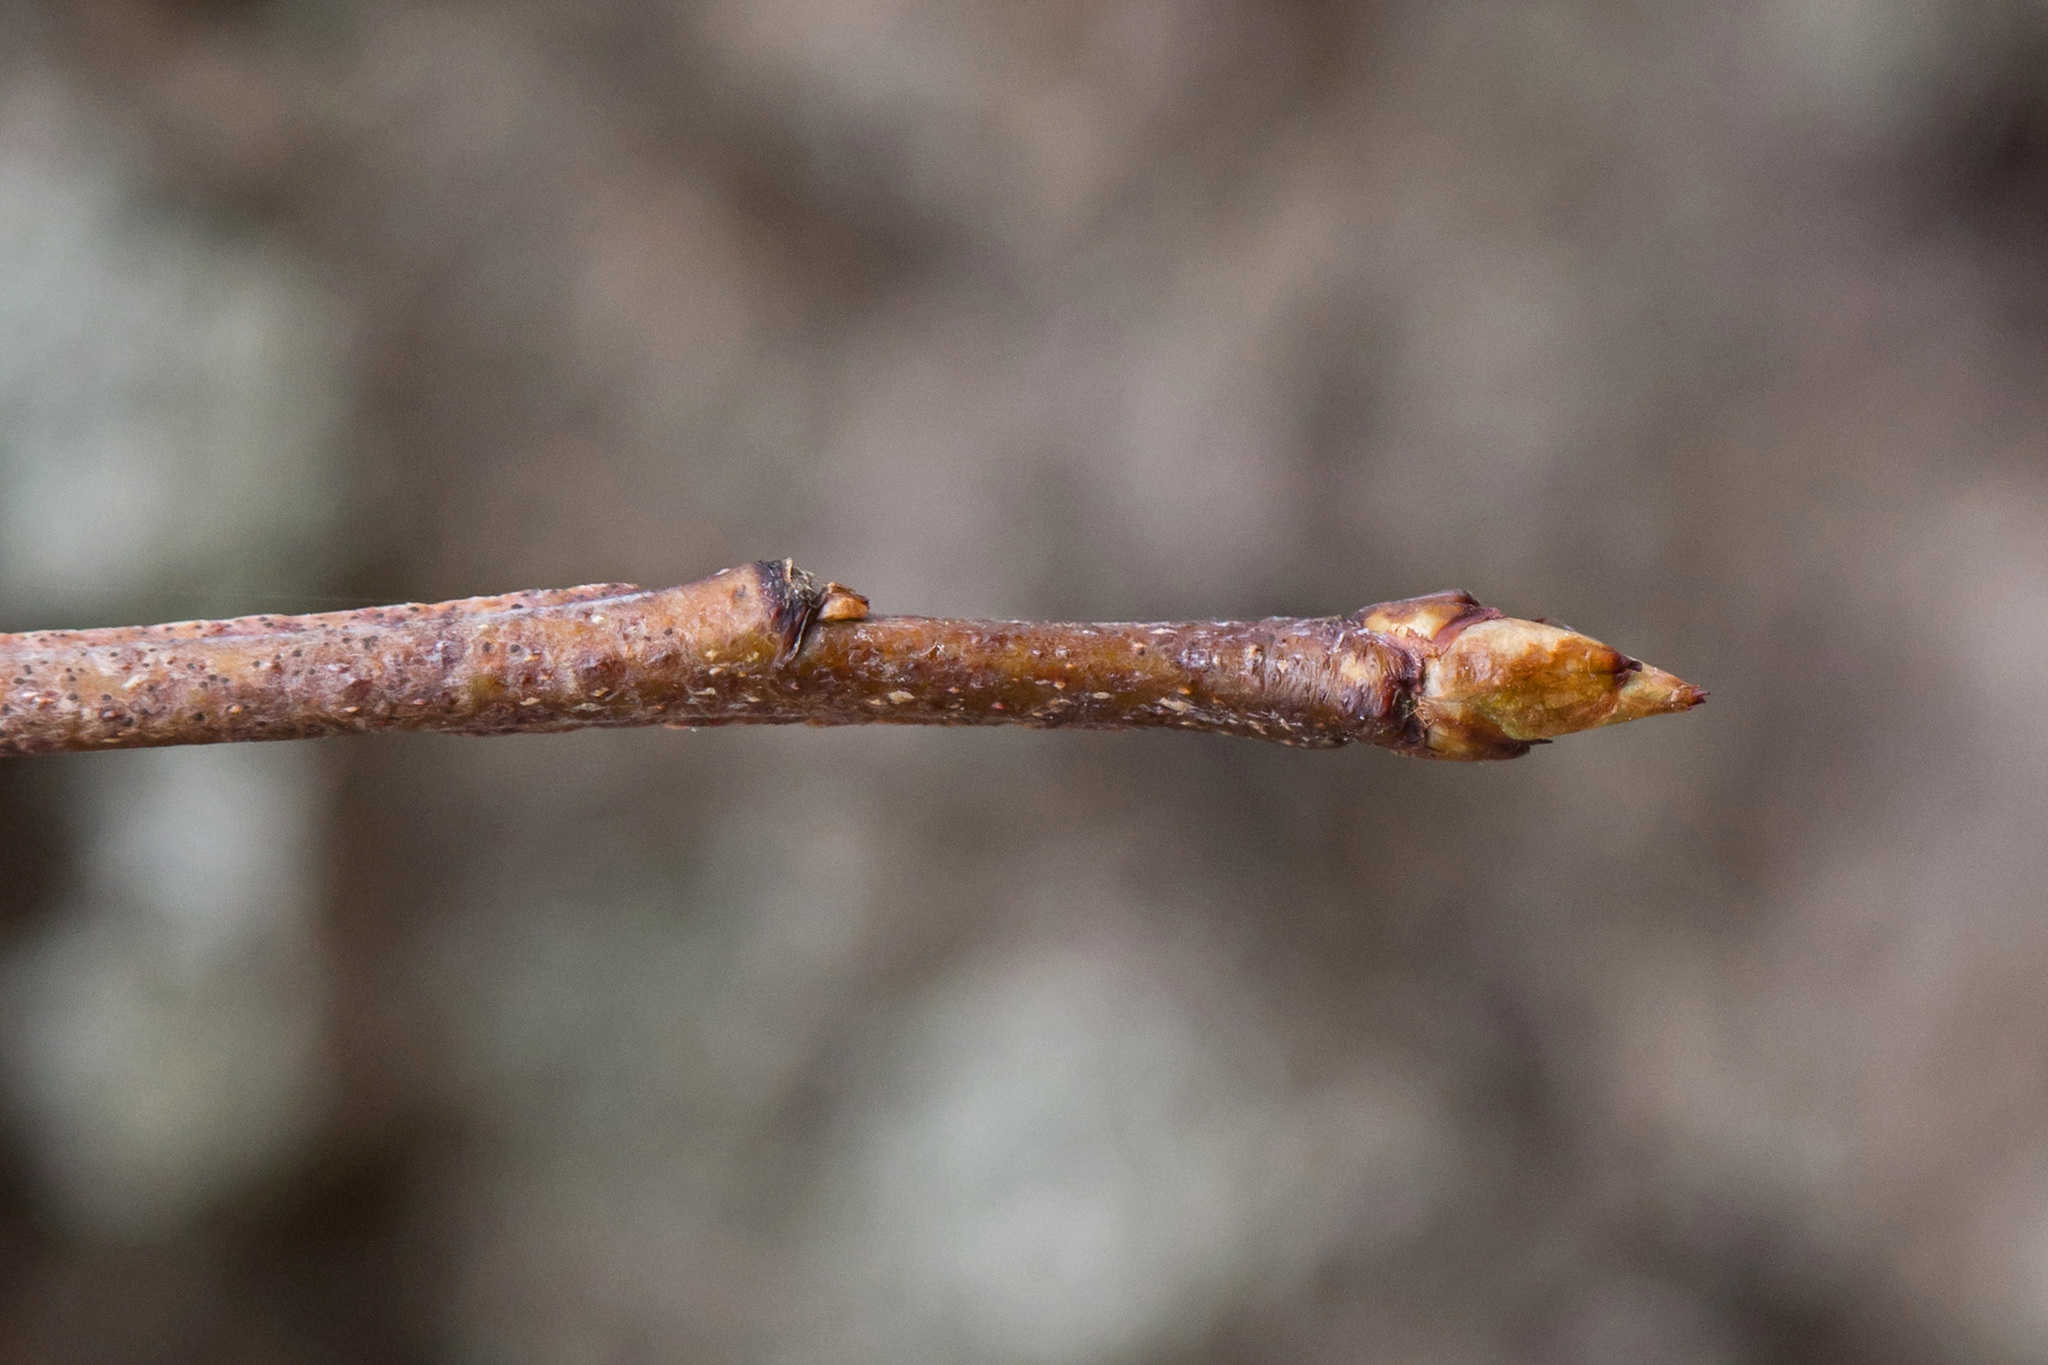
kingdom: Plantae
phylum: Tracheophyta
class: Magnoliopsida
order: Rosales
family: Rosaceae
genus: Prunus
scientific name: Prunus serotina
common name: Black cherry
